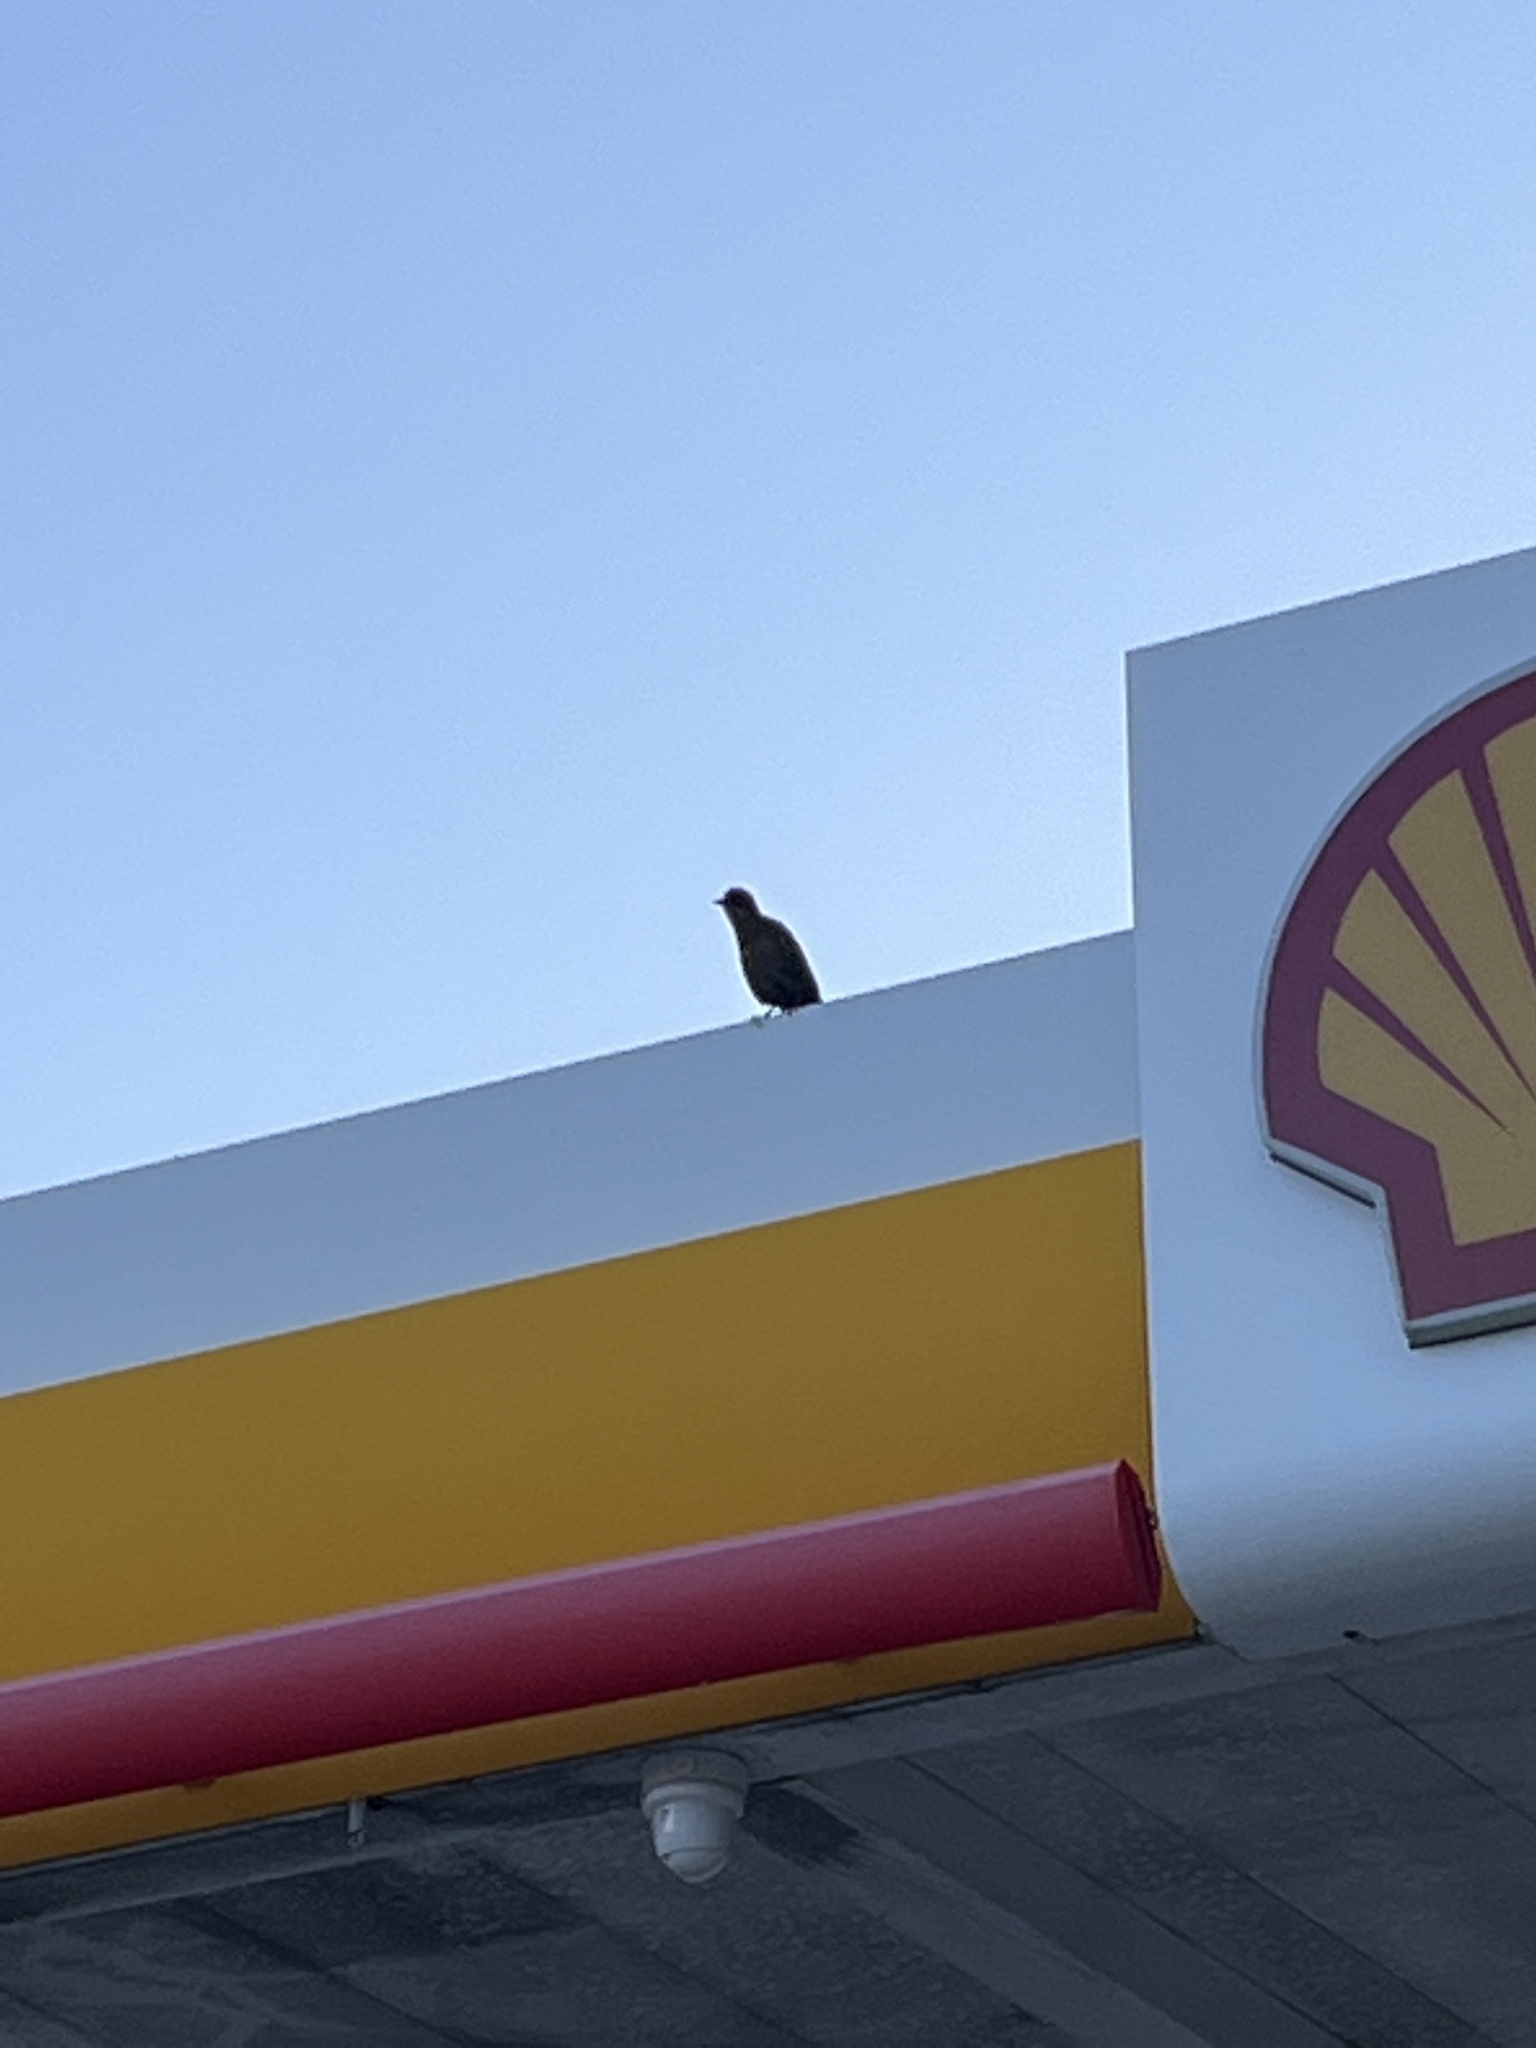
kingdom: Animalia
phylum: Chordata
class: Aves
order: Passeriformes
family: Icteridae
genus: Quiscalus
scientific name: Quiscalus mexicanus
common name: Great-tailed grackle
